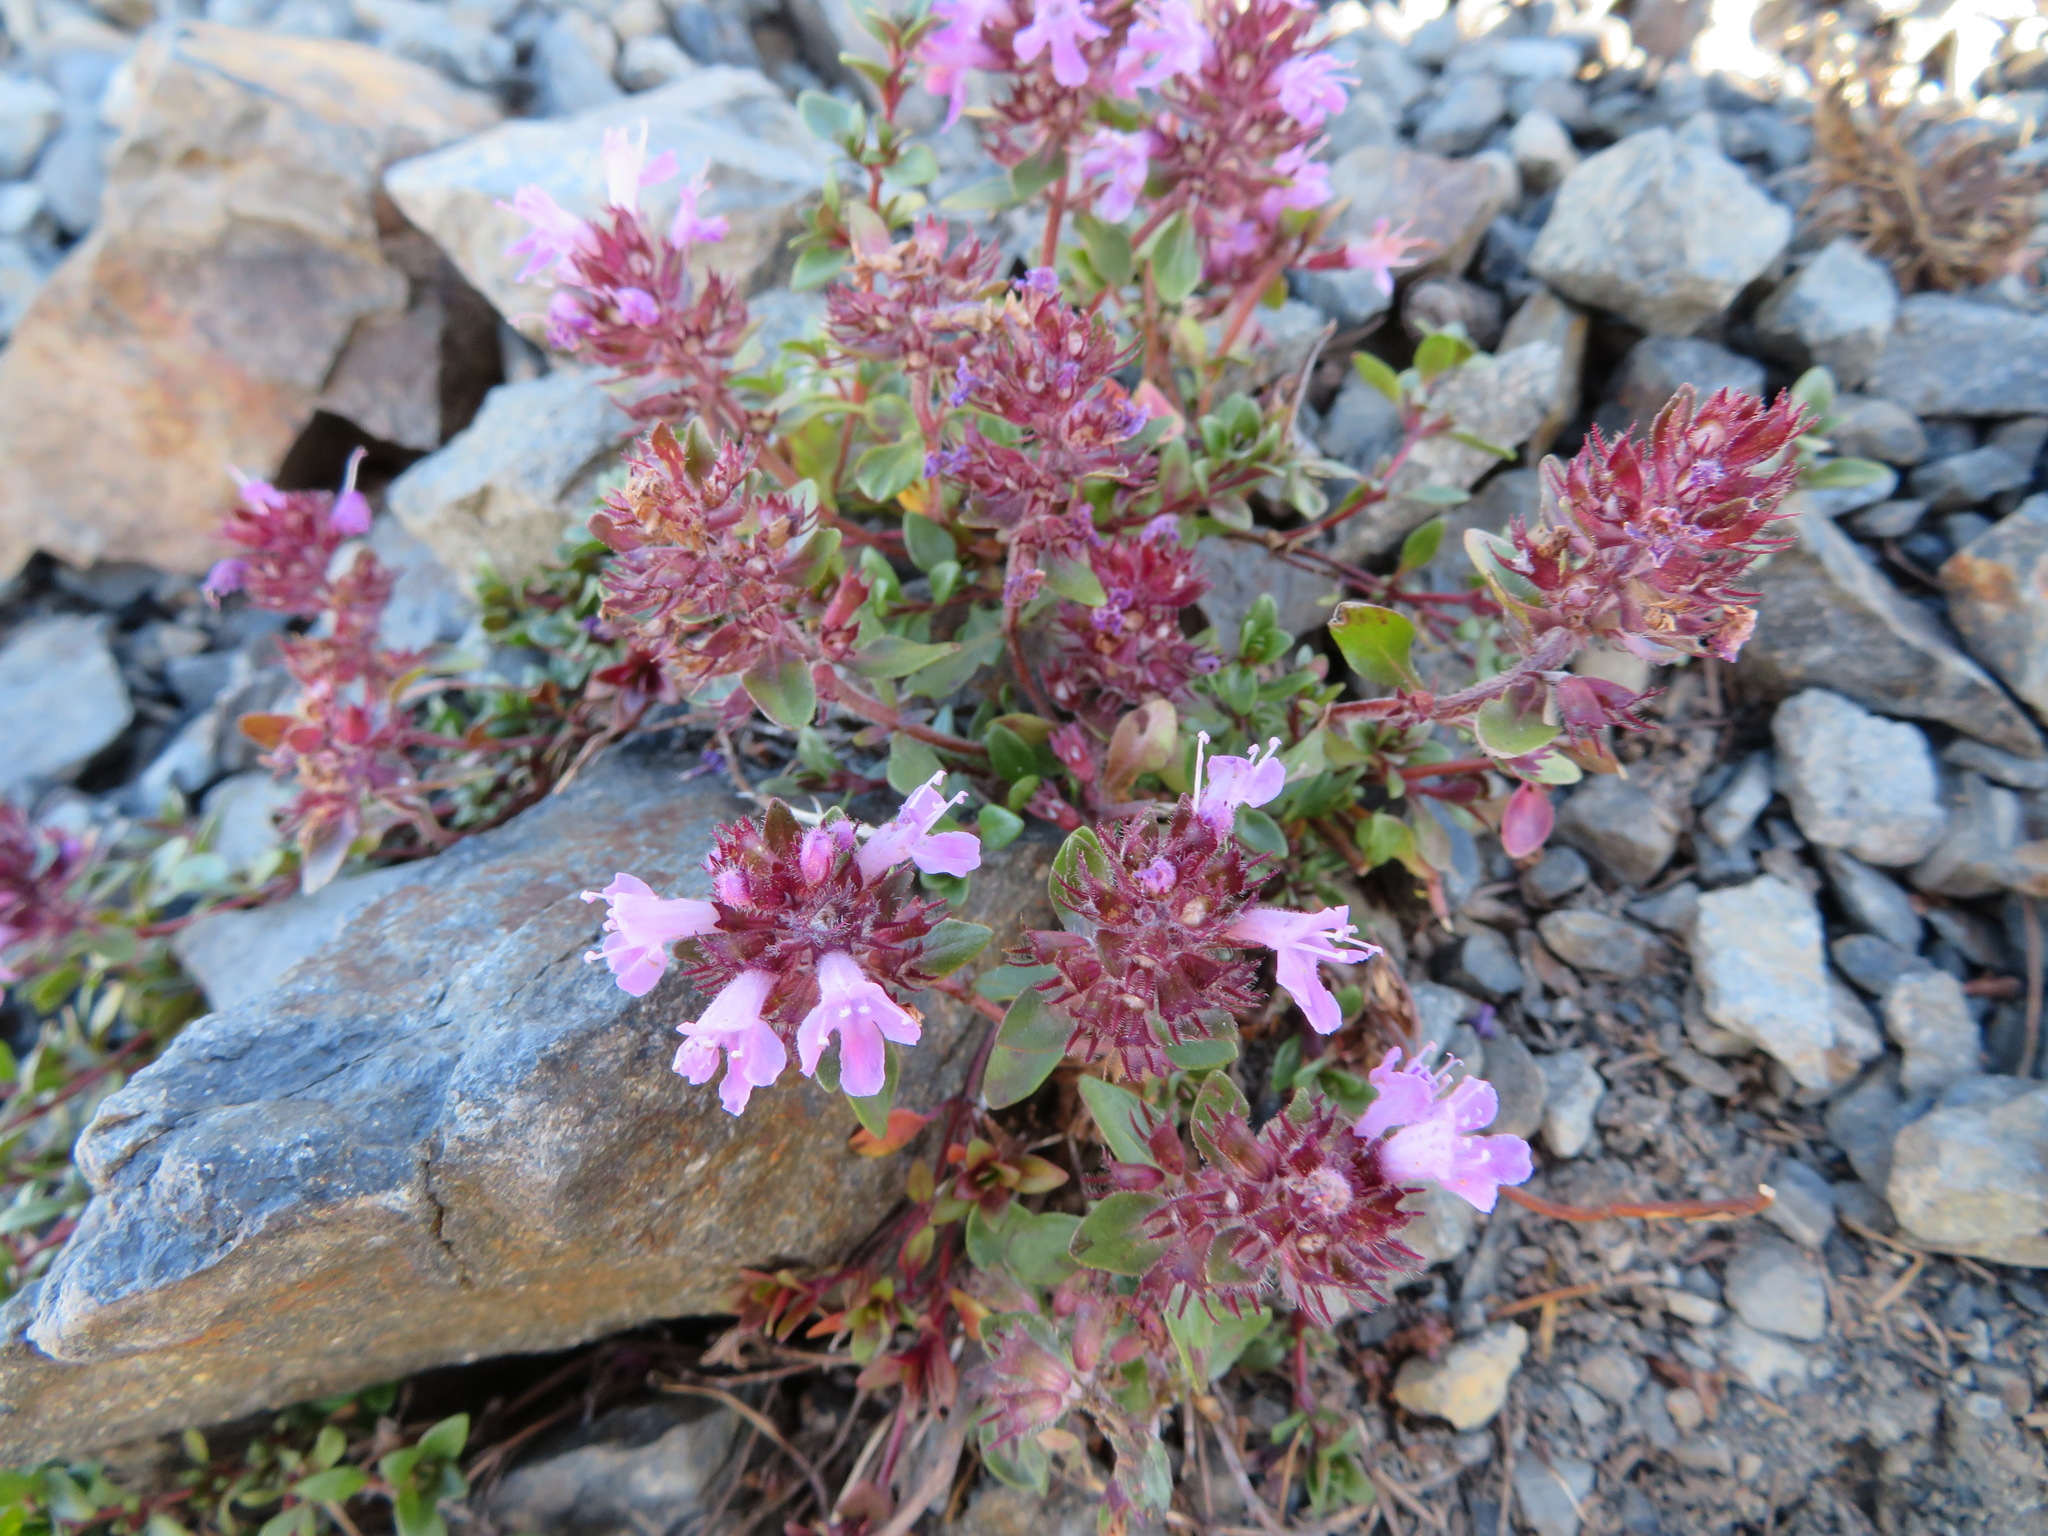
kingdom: Plantae
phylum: Tracheophyta
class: Magnoliopsida
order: Lamiales
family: Lamiaceae
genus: Thymus
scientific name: Thymus quinquecostatus
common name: Japanese thyme
